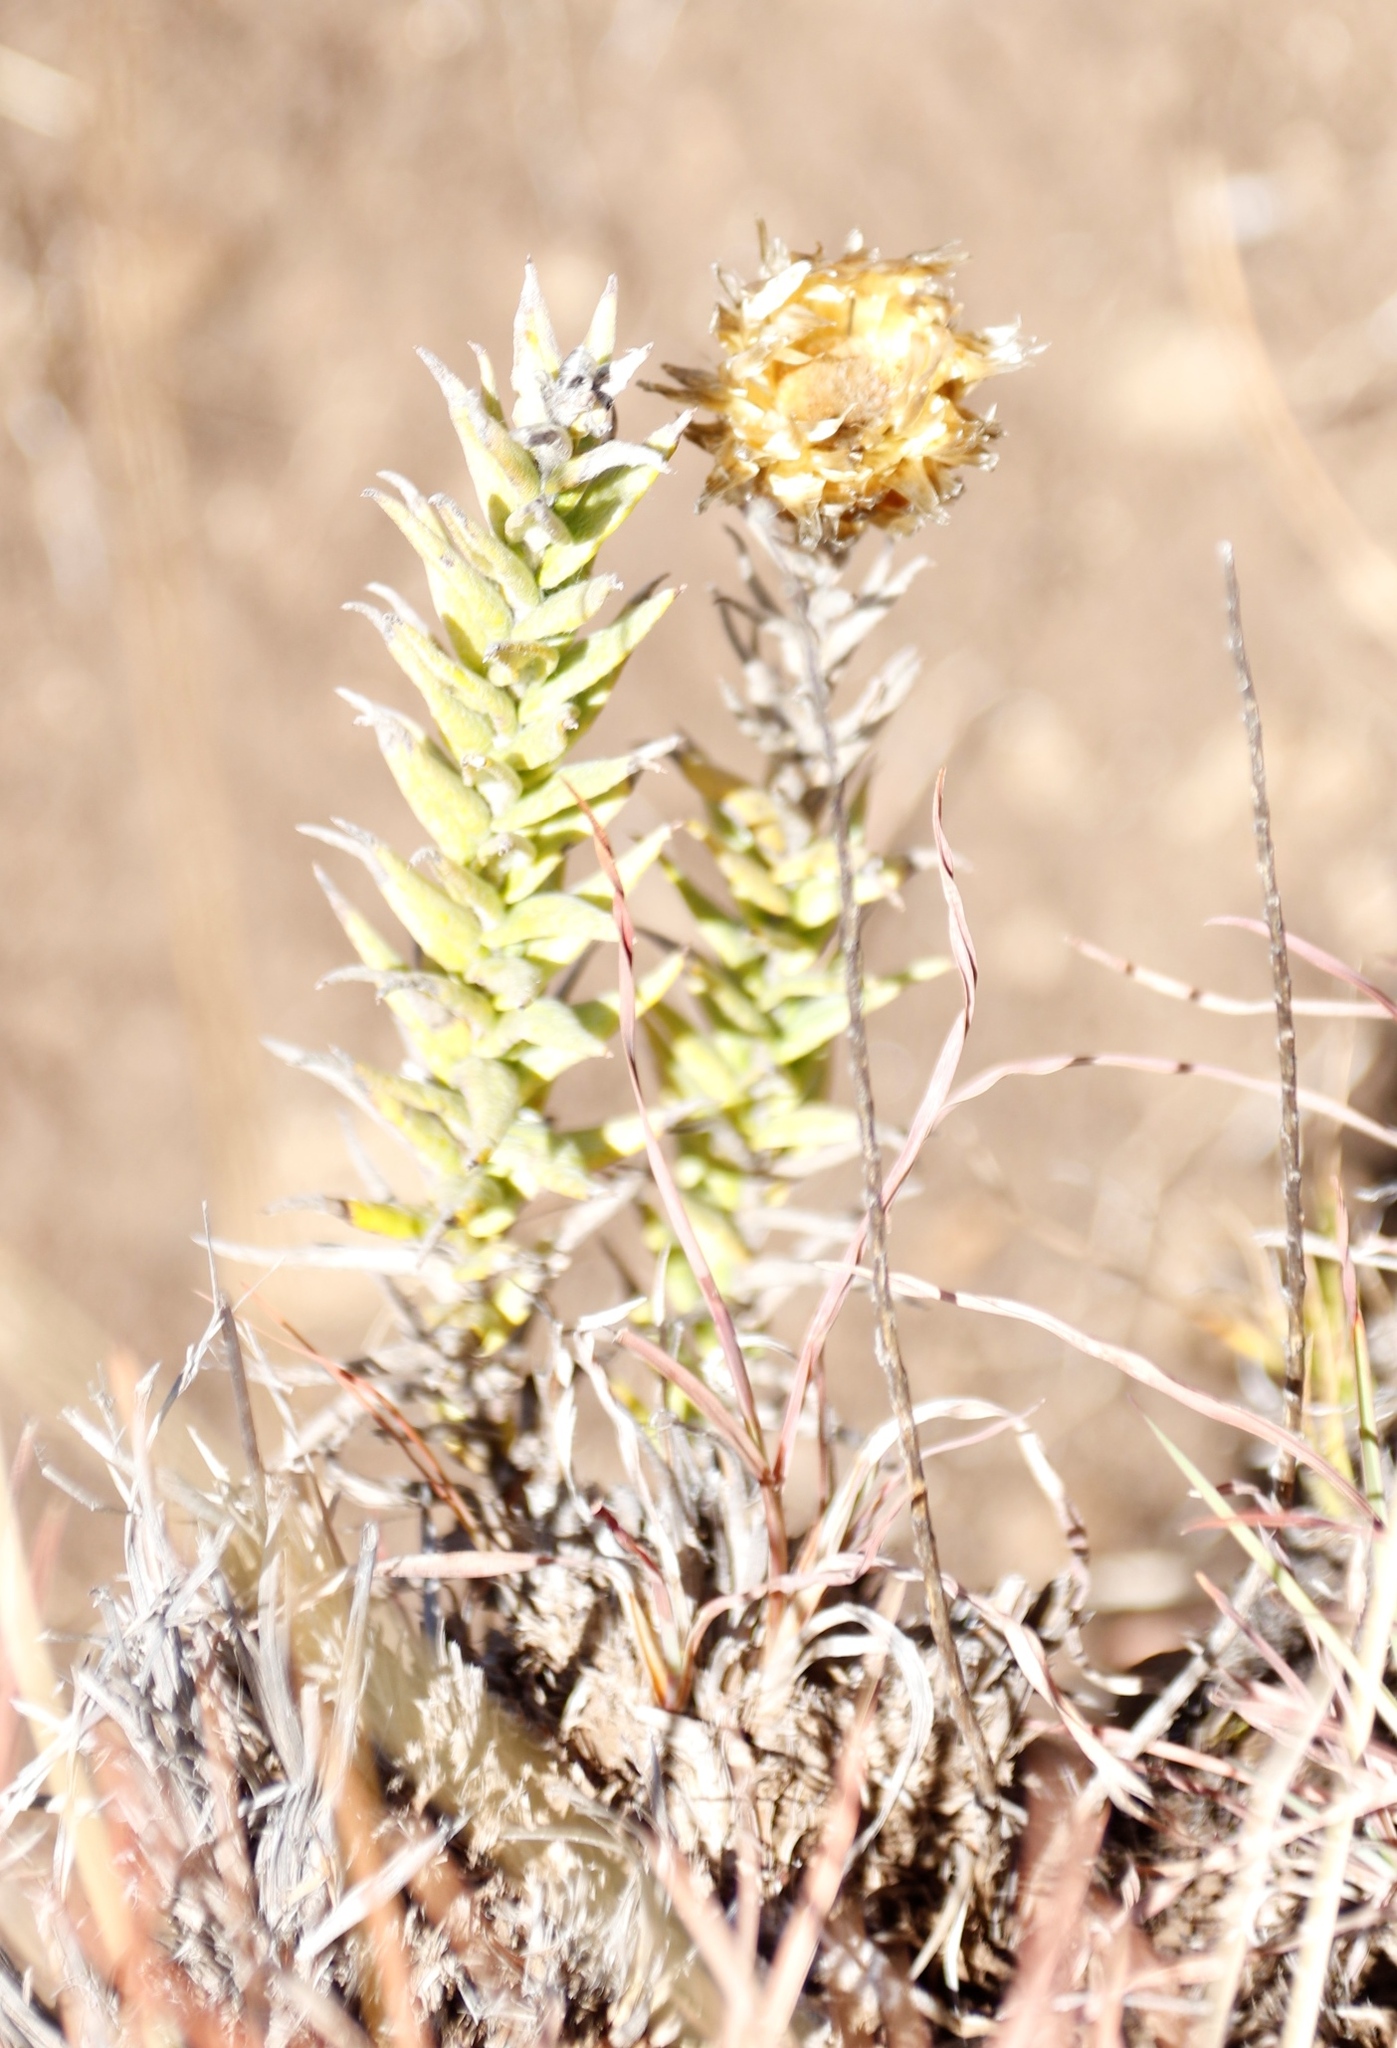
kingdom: Plantae
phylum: Tracheophyta
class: Magnoliopsida
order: Asterales
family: Asteraceae
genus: Helichrysum
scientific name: Helichrysum herbaceum
